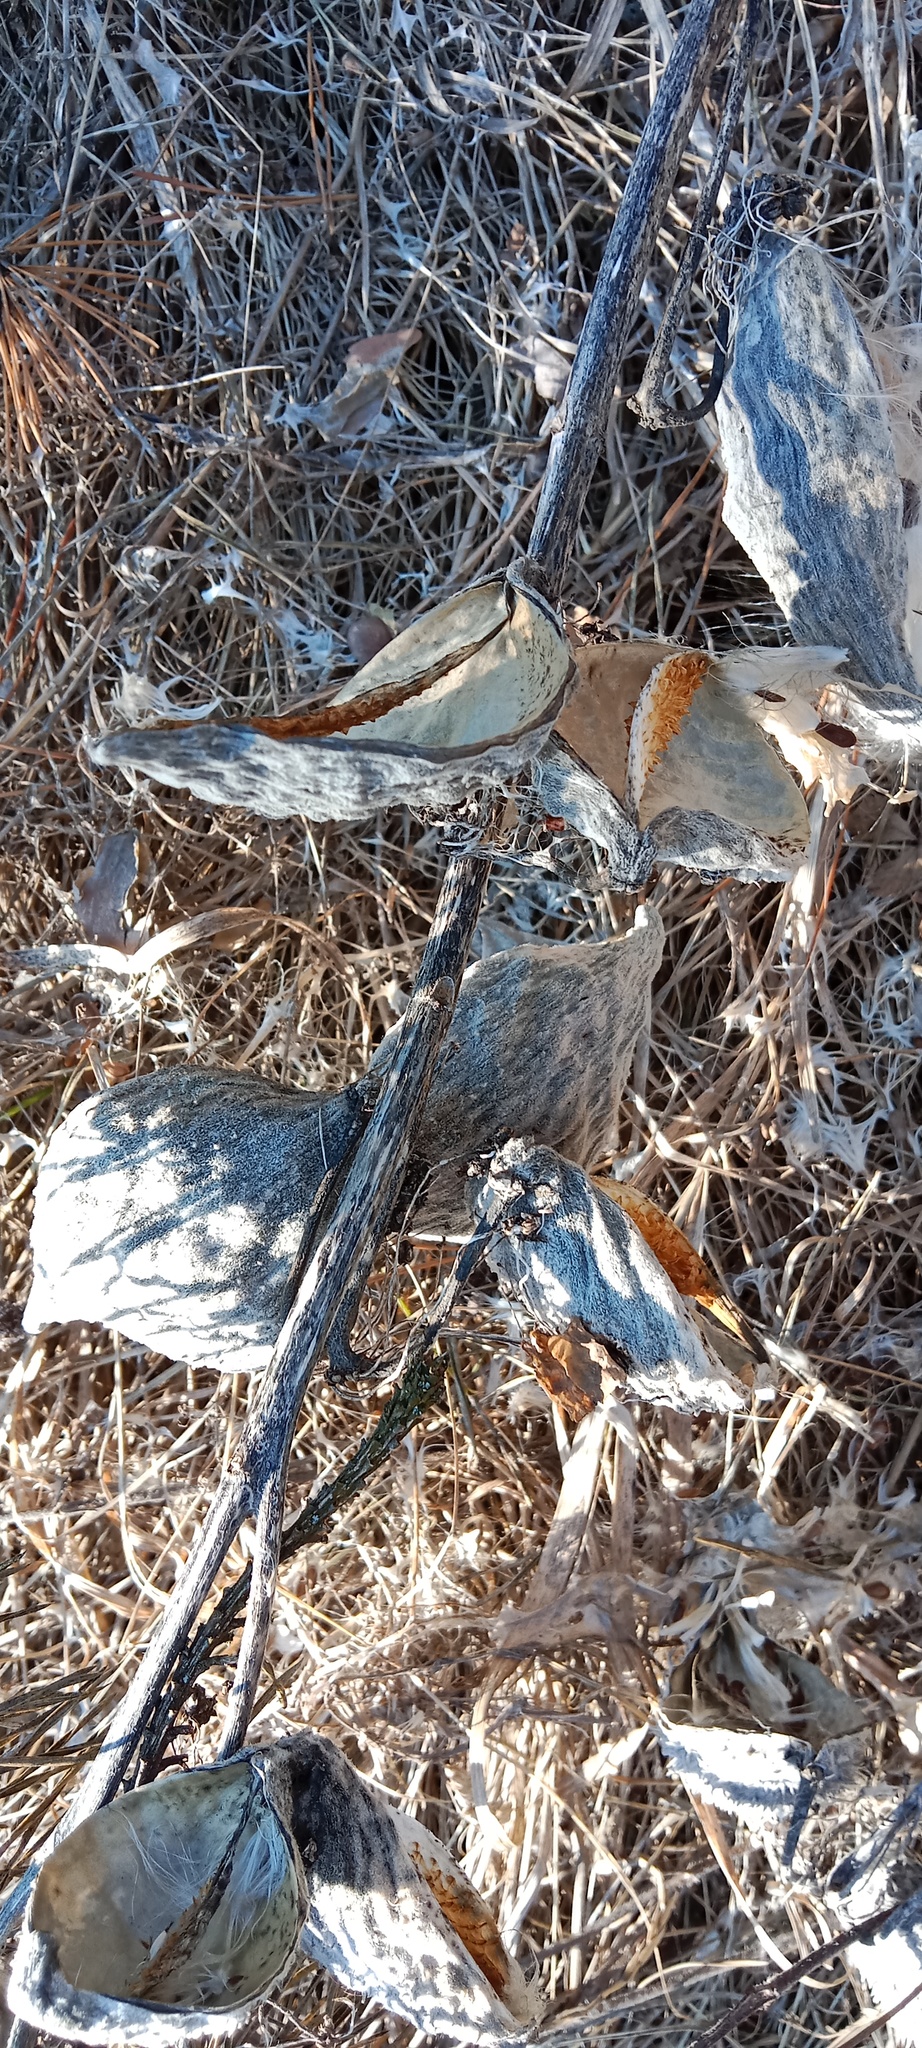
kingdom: Plantae
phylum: Tracheophyta
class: Magnoliopsida
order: Gentianales
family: Apocynaceae
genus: Asclepias
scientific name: Asclepias syriaca
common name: Common milkweed
